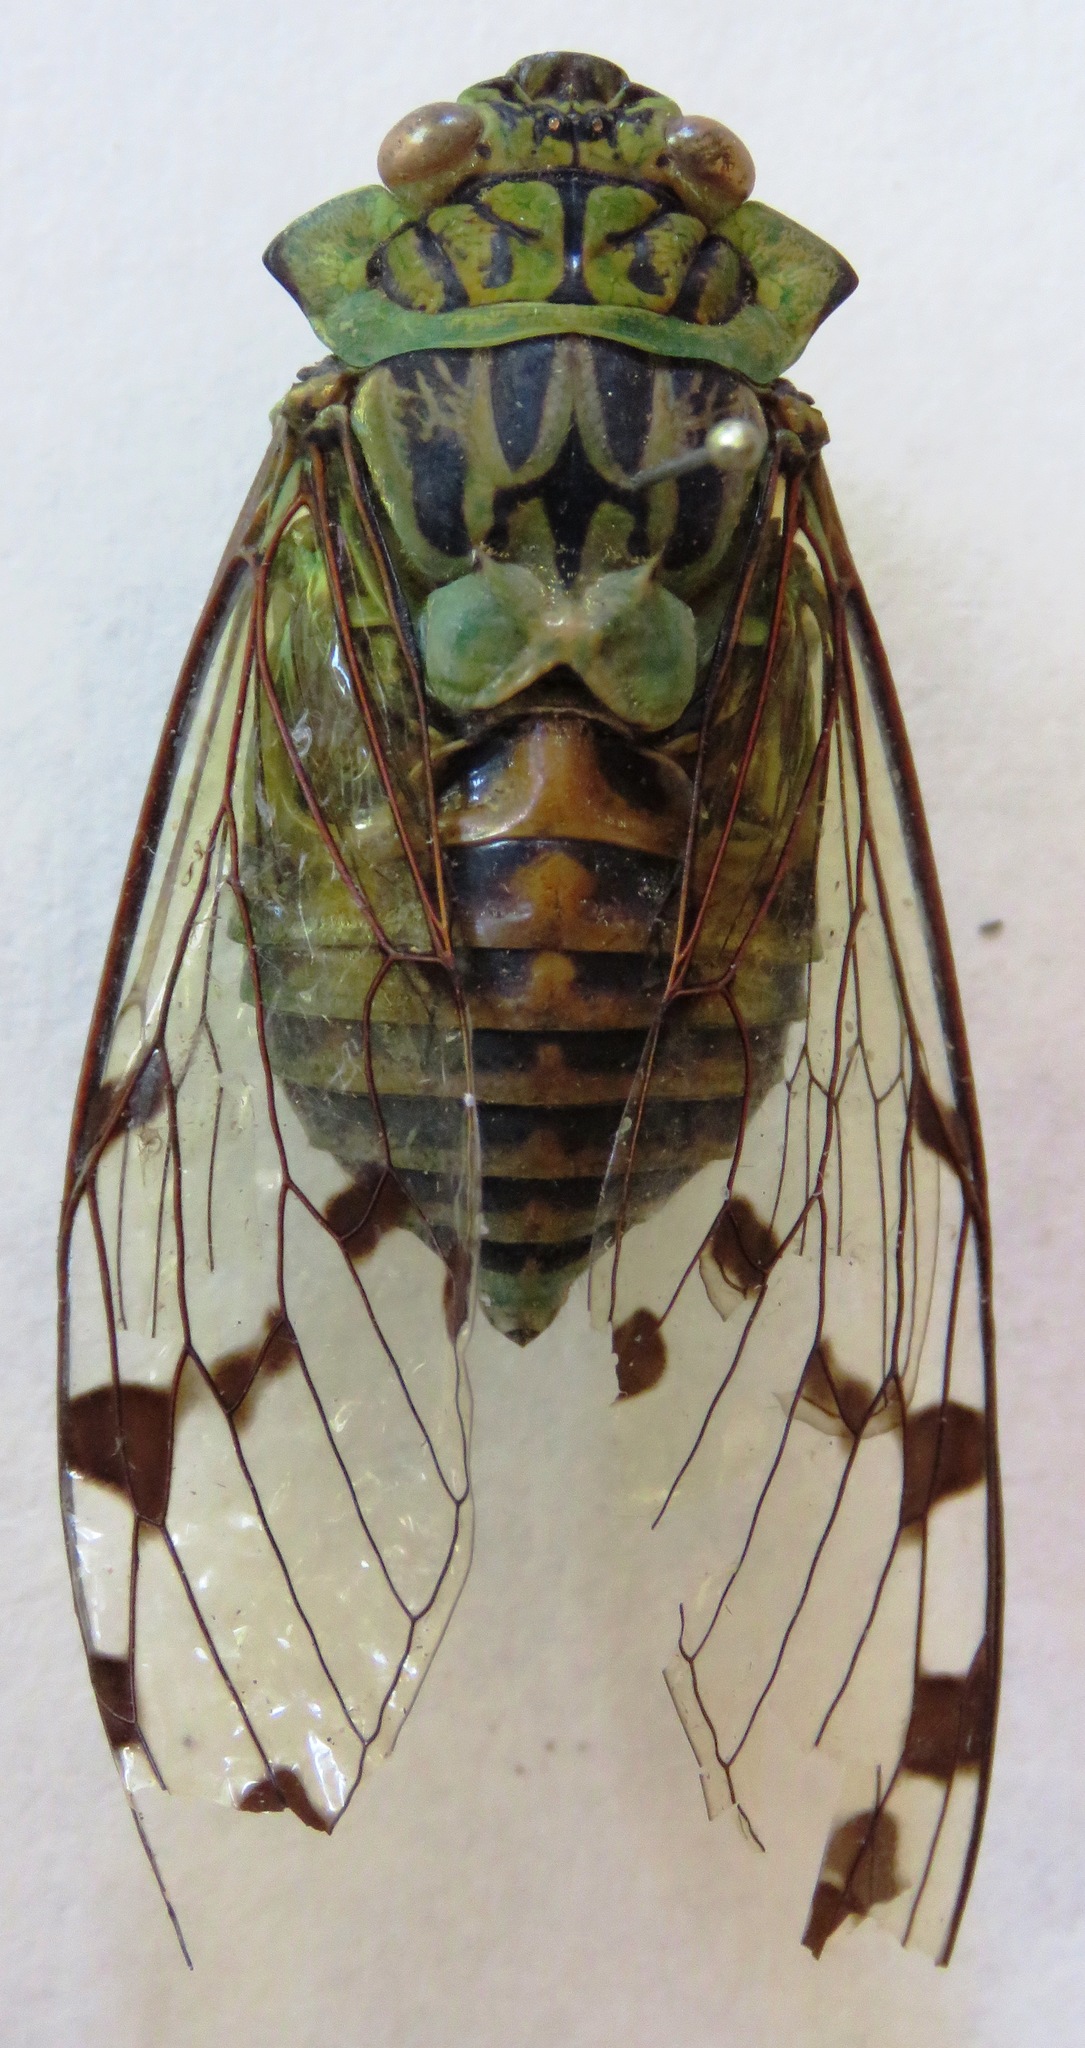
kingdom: Animalia
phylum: Arthropoda
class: Insecta
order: Hemiptera
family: Cicadidae
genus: Zammara
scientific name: Zammara smaragdina
